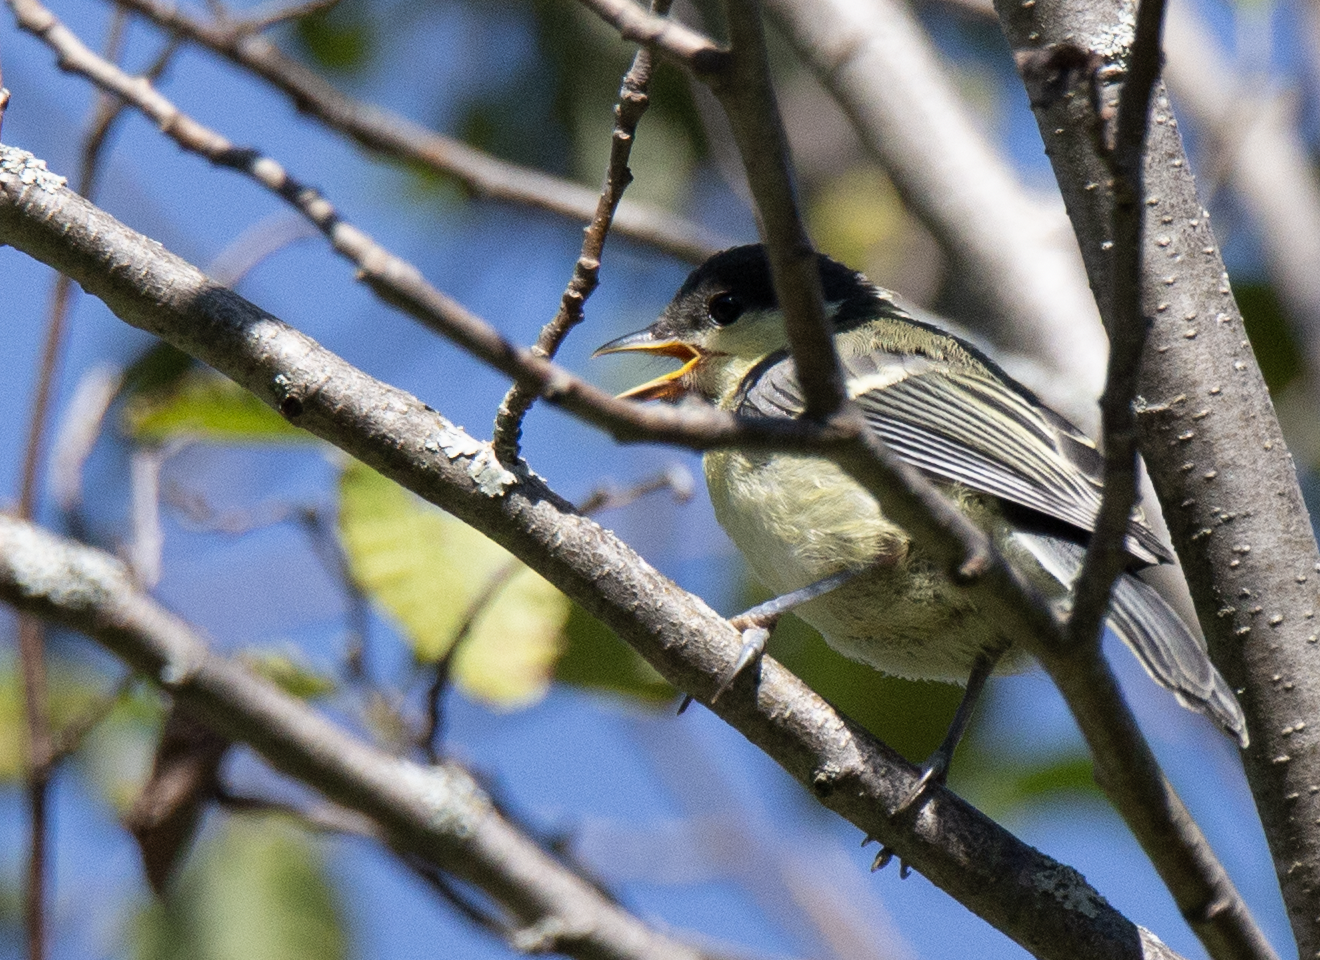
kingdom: Animalia
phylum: Chordata
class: Aves
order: Passeriformes
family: Paridae
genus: Parus
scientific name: Parus major
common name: Great tit
